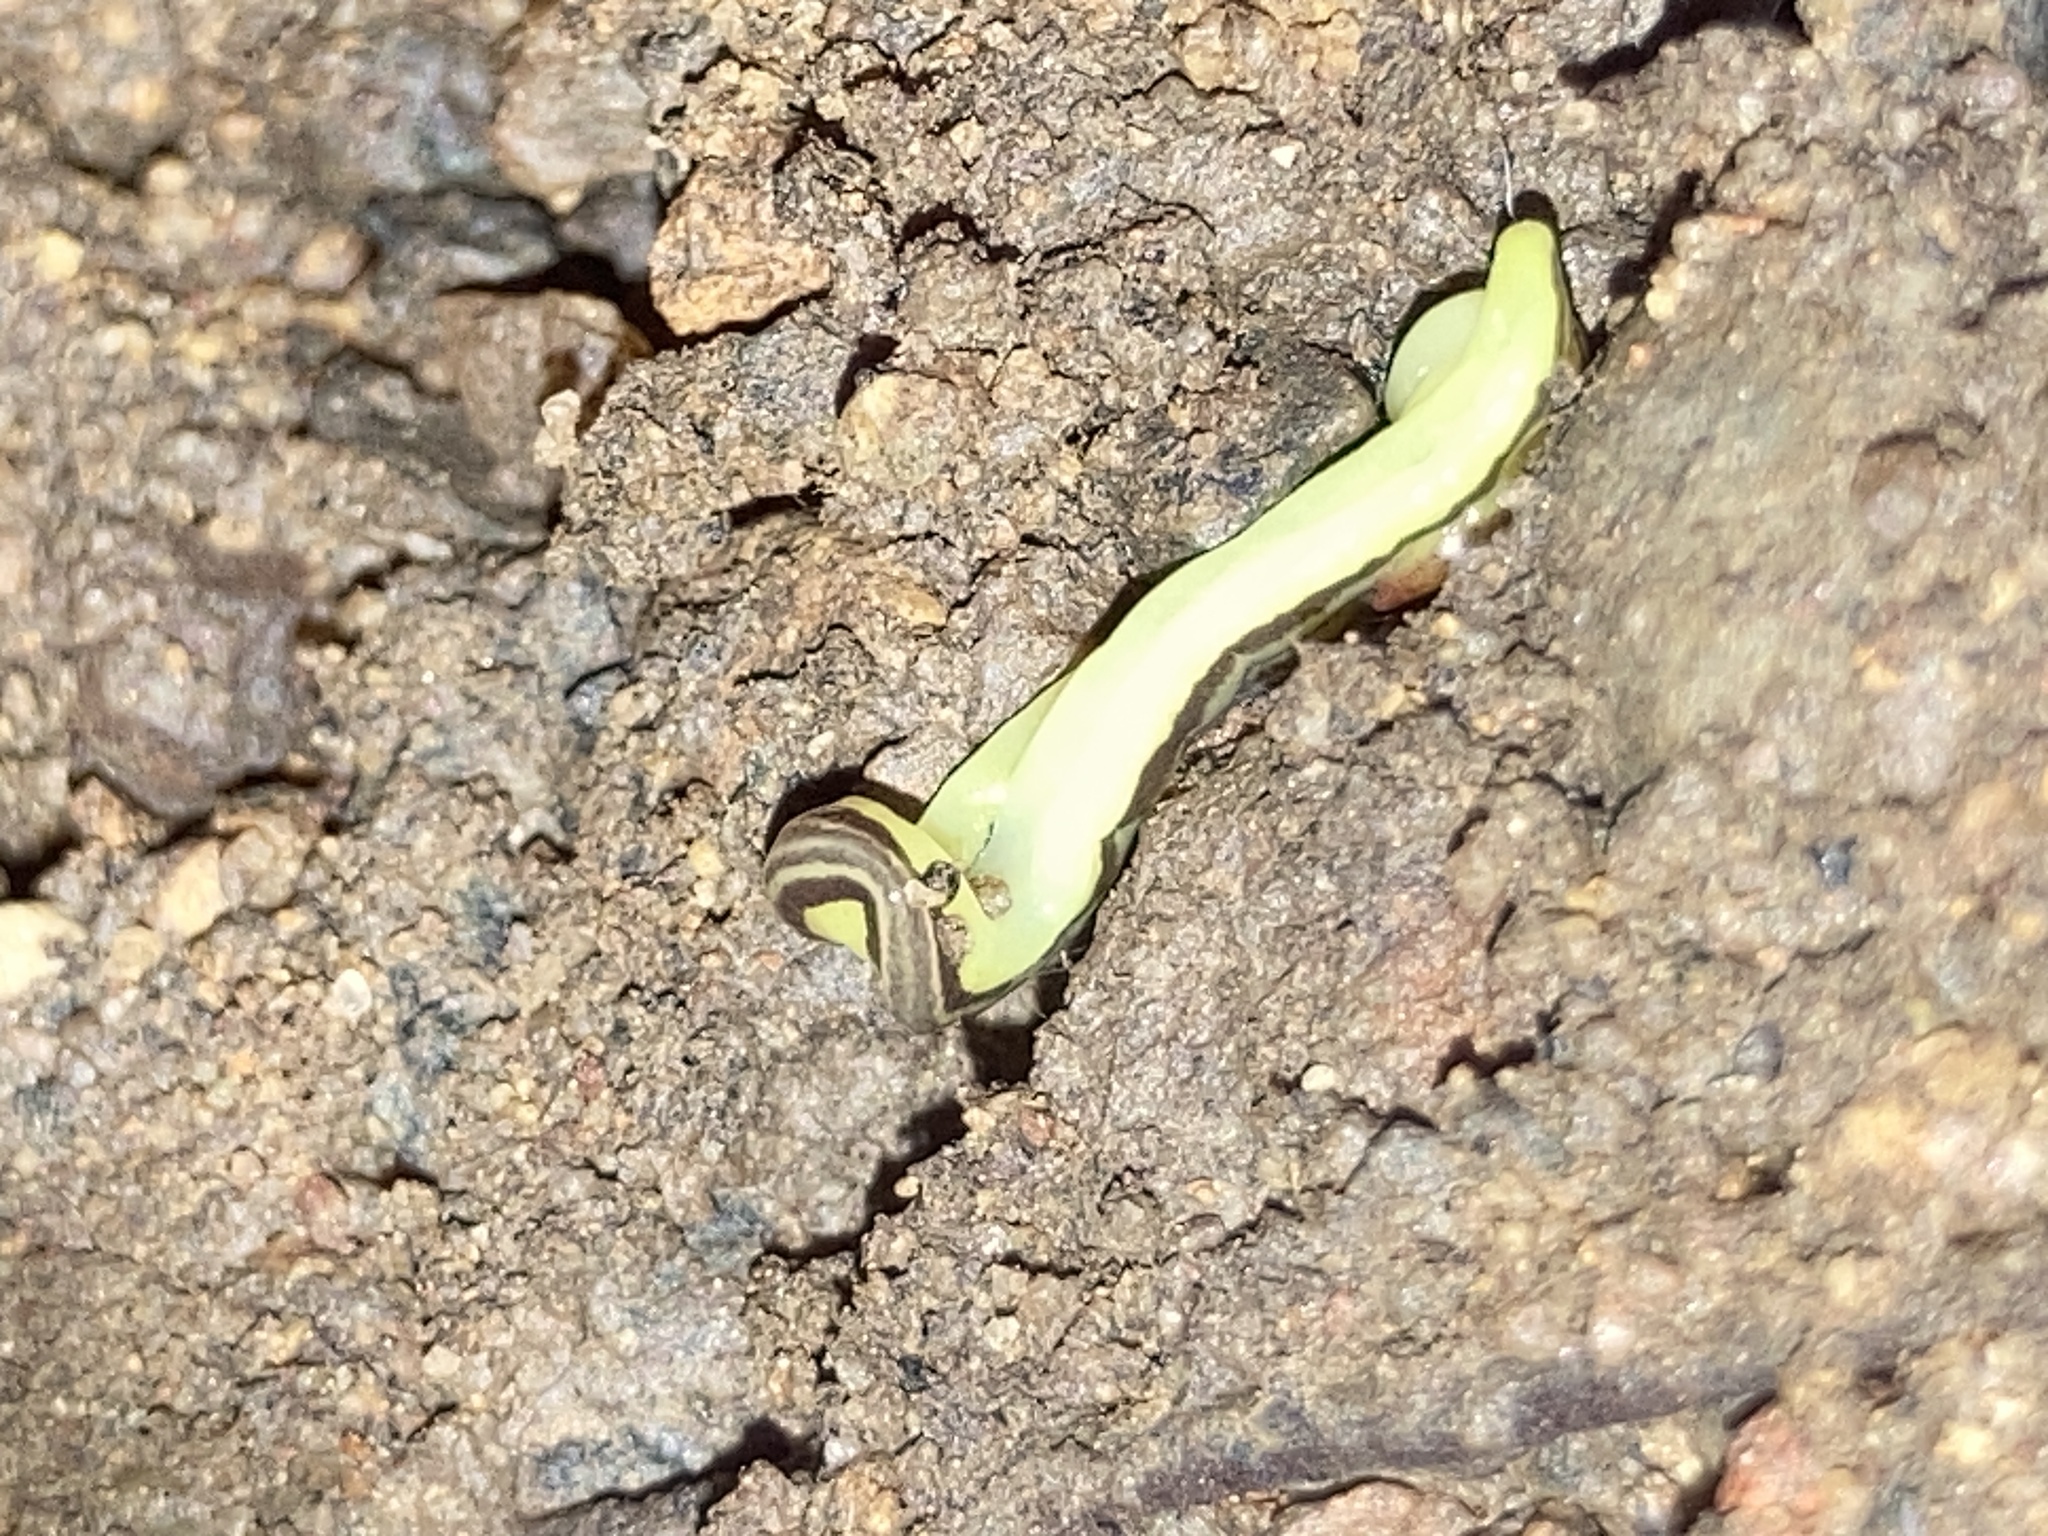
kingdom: Animalia
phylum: Platyhelminthes
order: Tricladida
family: Geoplanidae
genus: Caenoplana
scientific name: Caenoplana sulphurea
